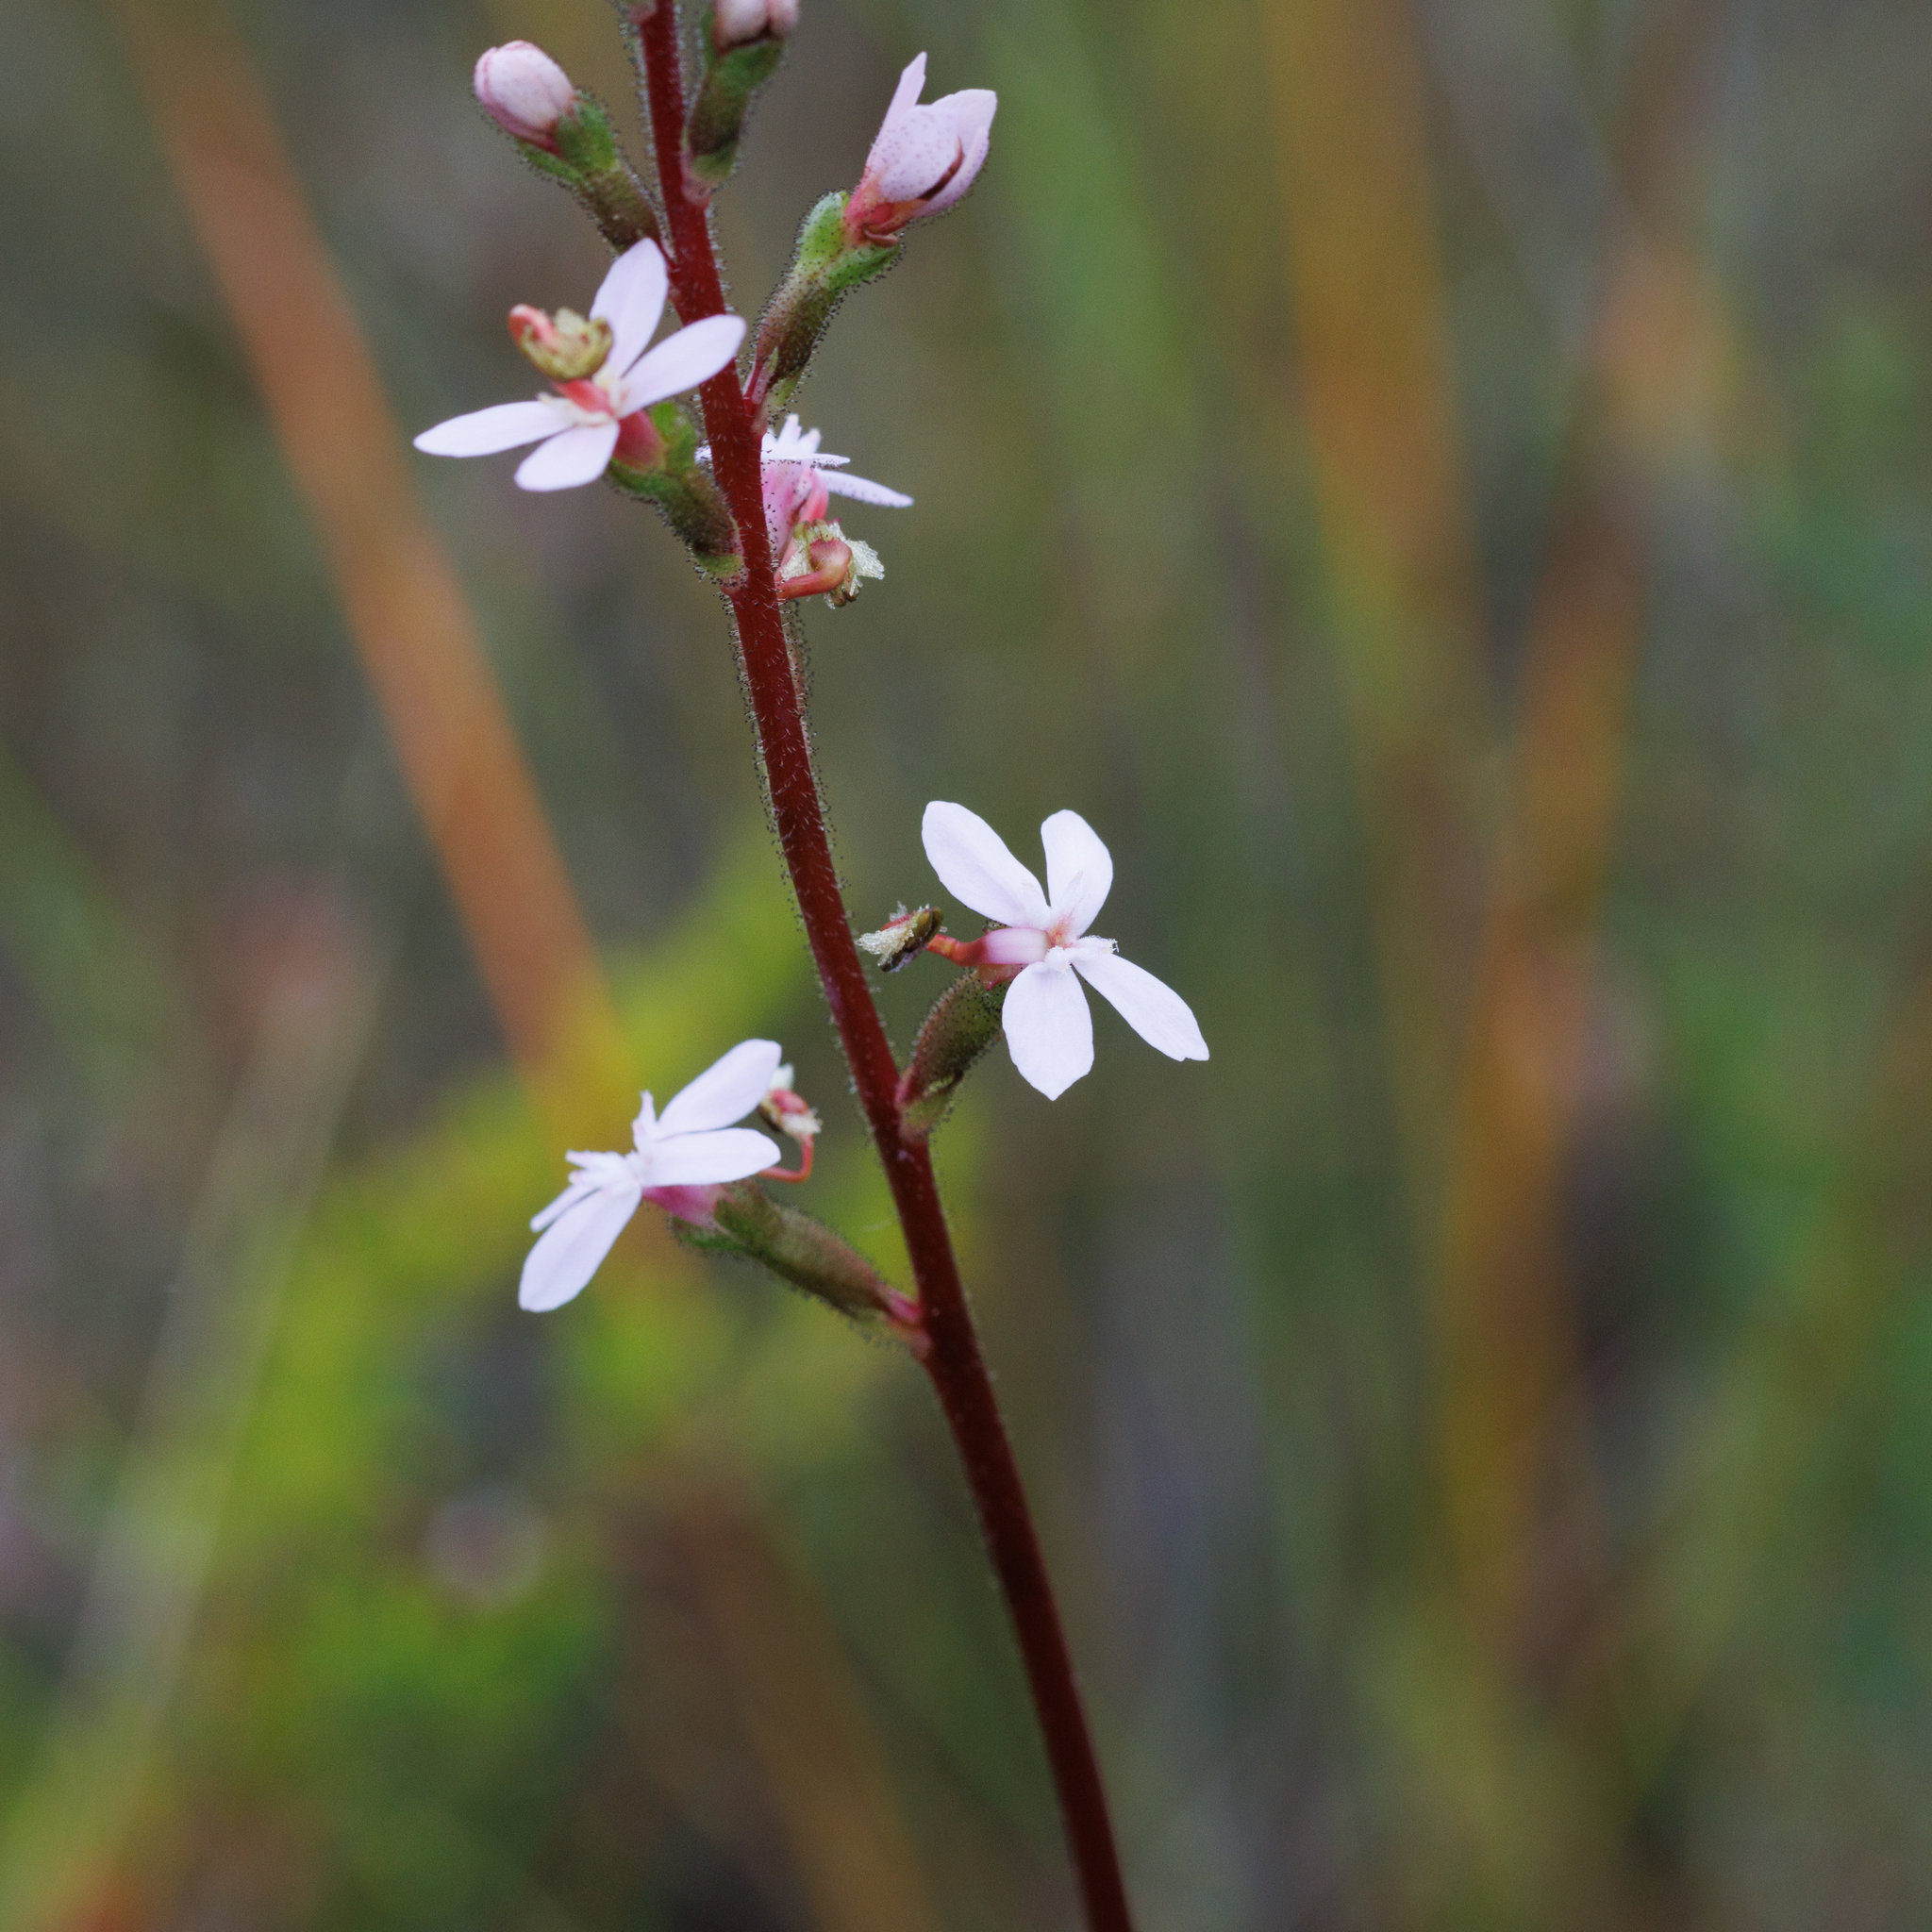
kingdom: Plantae
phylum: Tracheophyta
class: Magnoliopsida
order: Asterales
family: Stylidiaceae
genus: Stylidium
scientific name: Stylidium armeria
